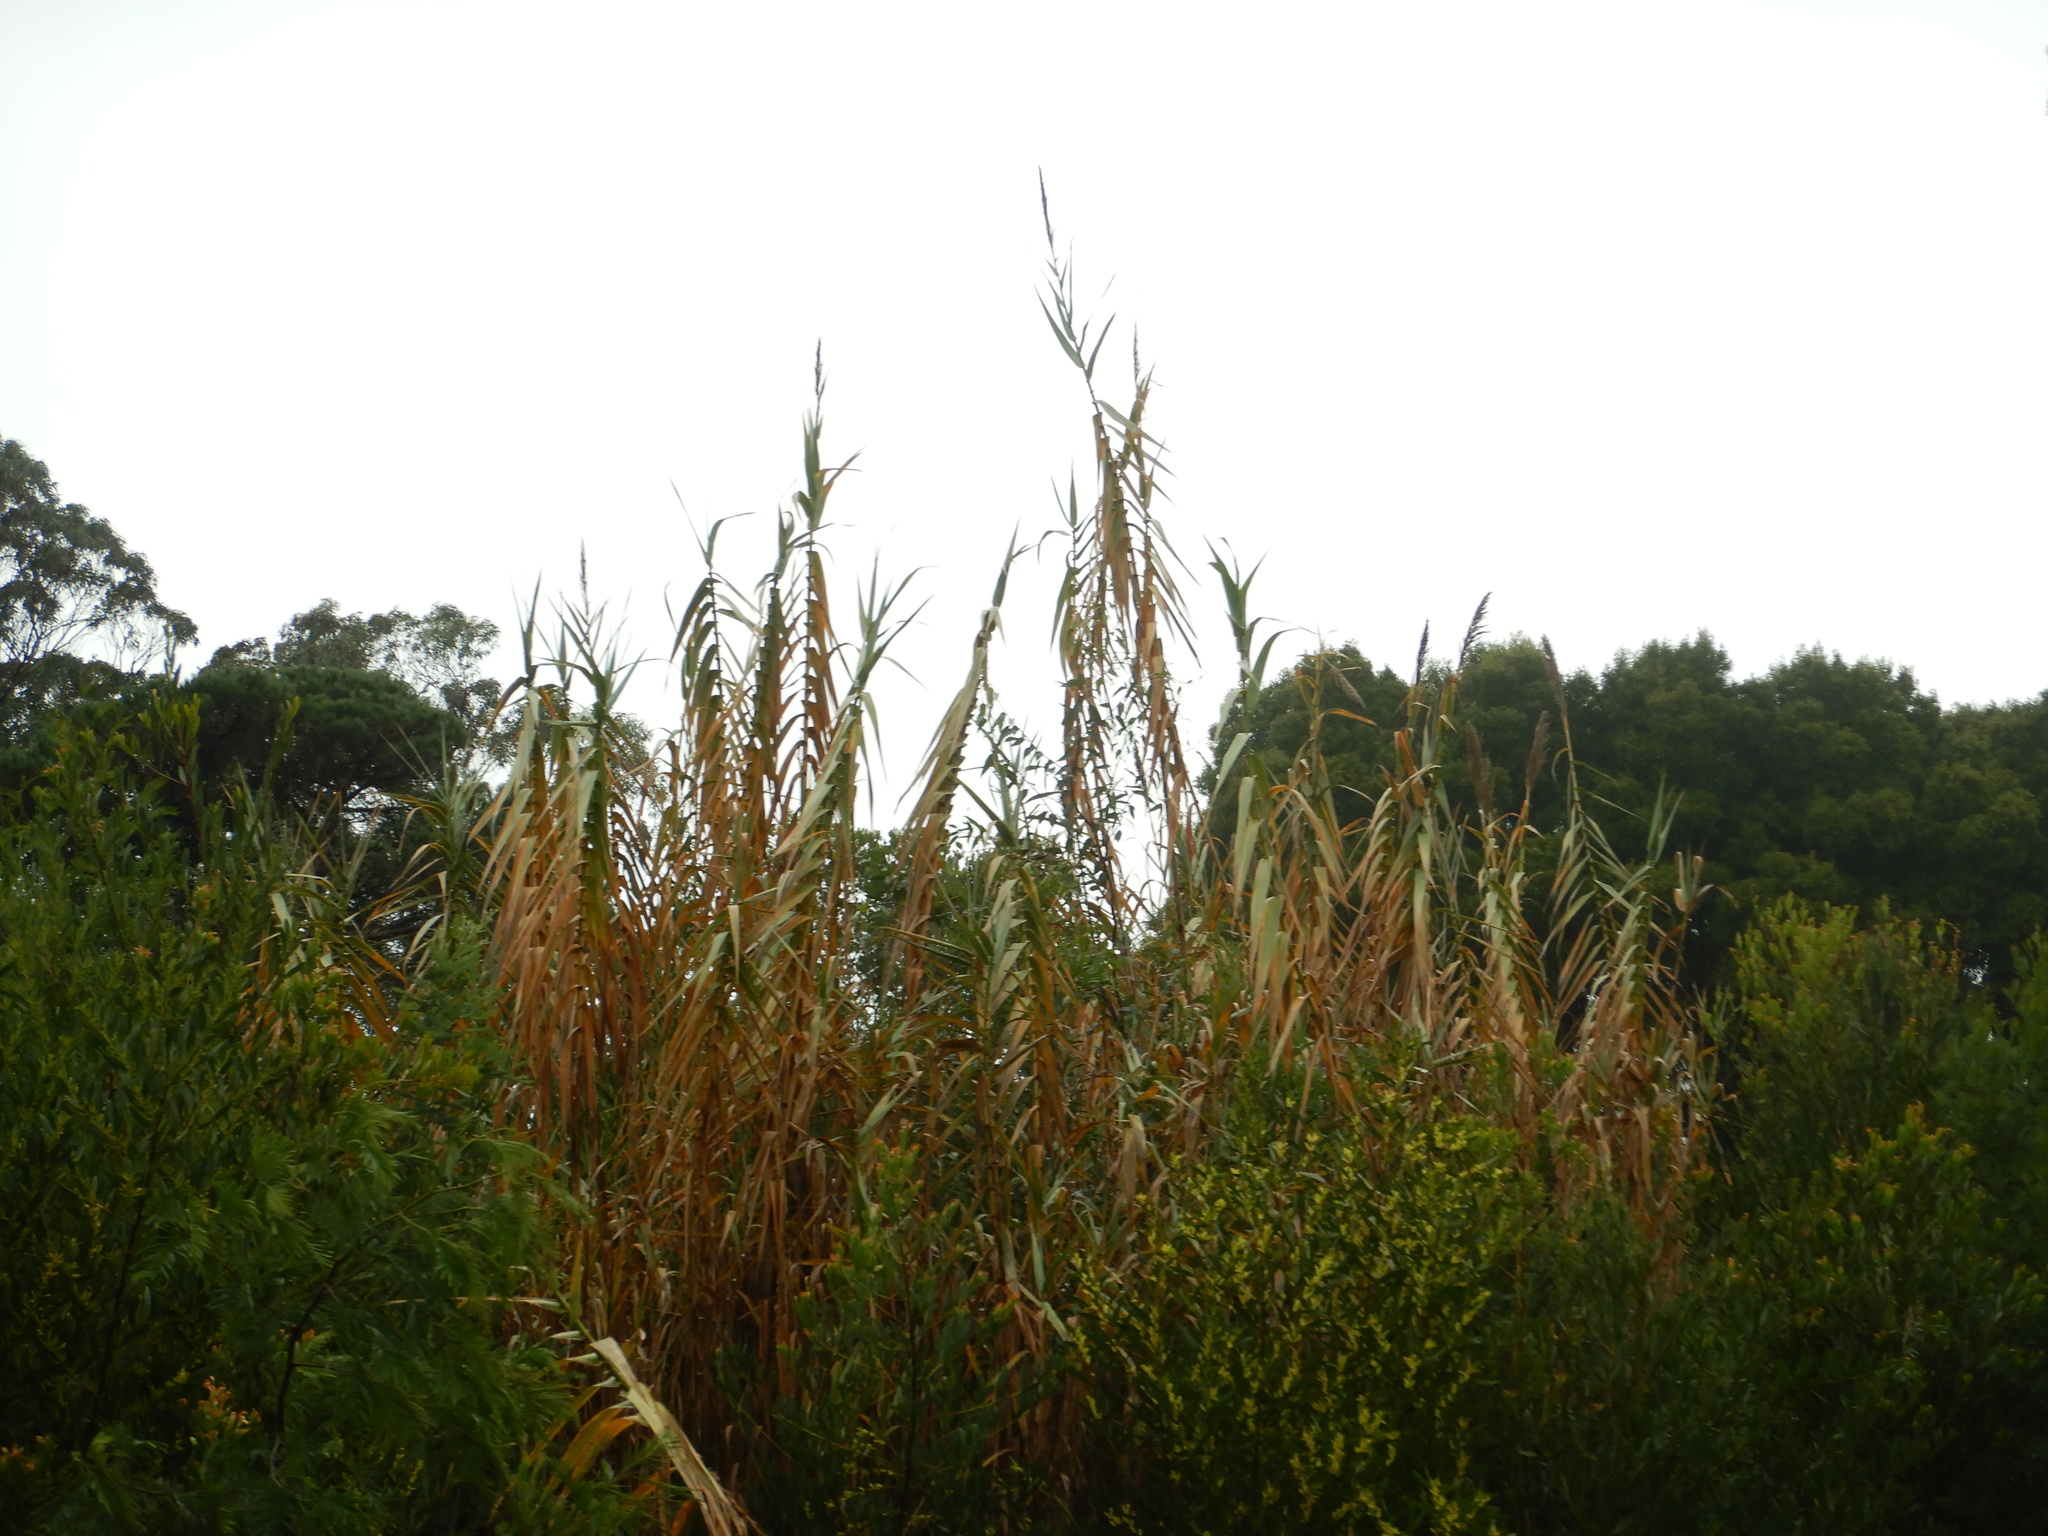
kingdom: Plantae
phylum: Tracheophyta
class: Liliopsida
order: Poales
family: Poaceae
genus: Arundo
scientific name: Arundo donax
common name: Giant reed
